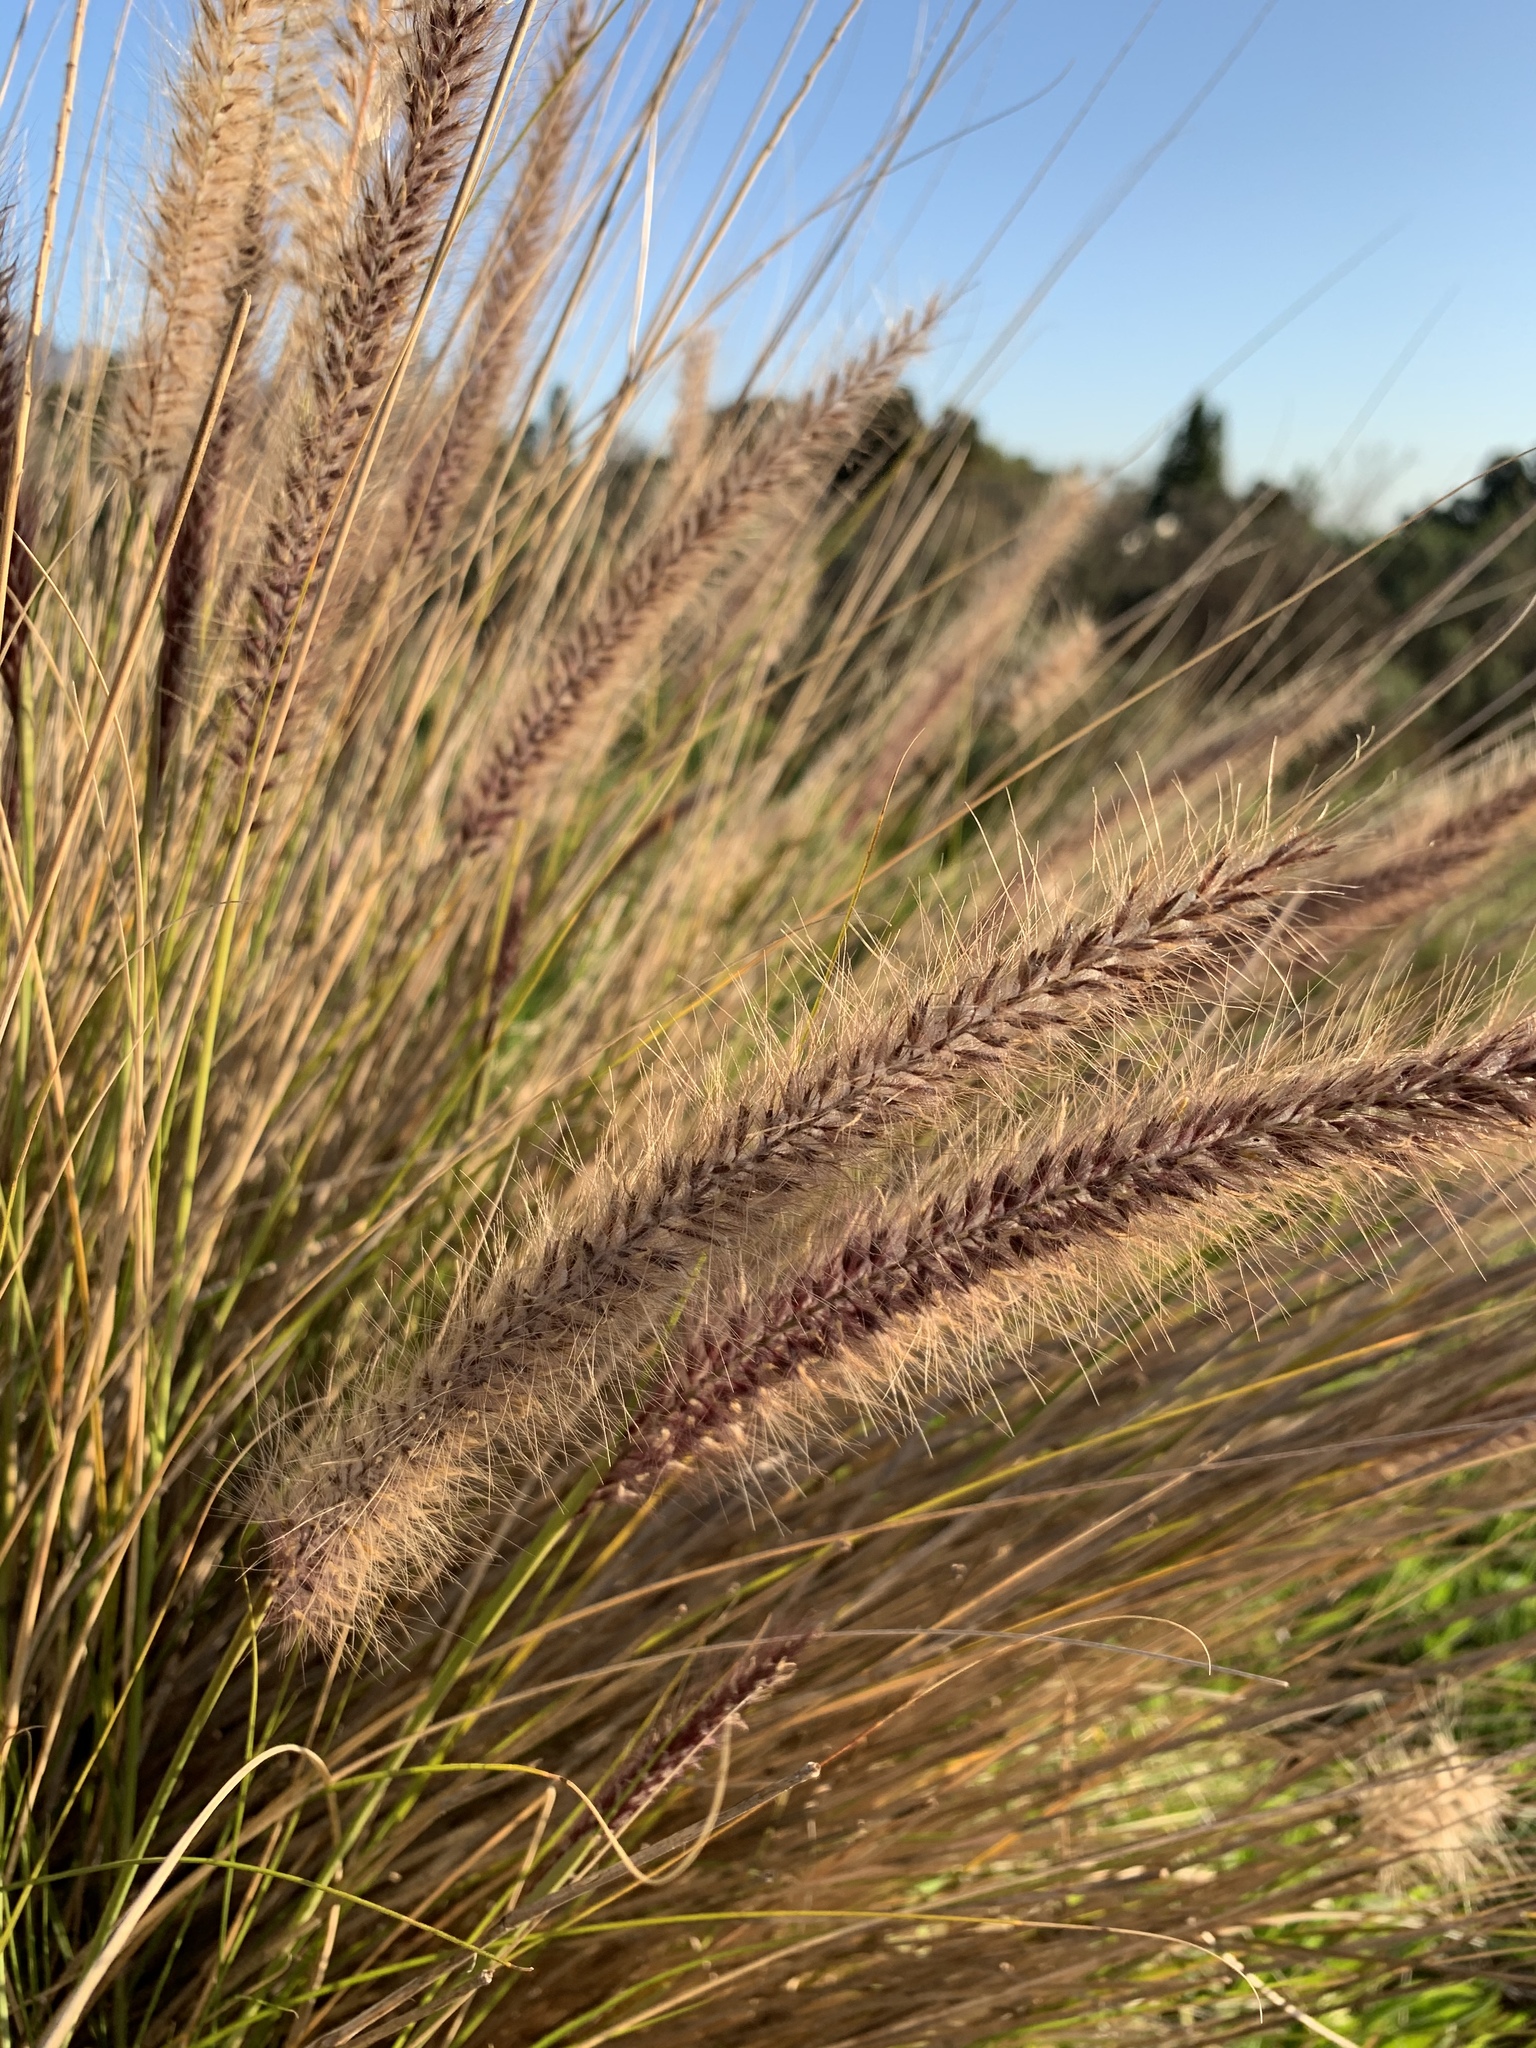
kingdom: Plantae
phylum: Tracheophyta
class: Liliopsida
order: Poales
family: Poaceae
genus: Cenchrus
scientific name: Cenchrus setaceus
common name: Crimson fountaingrass
